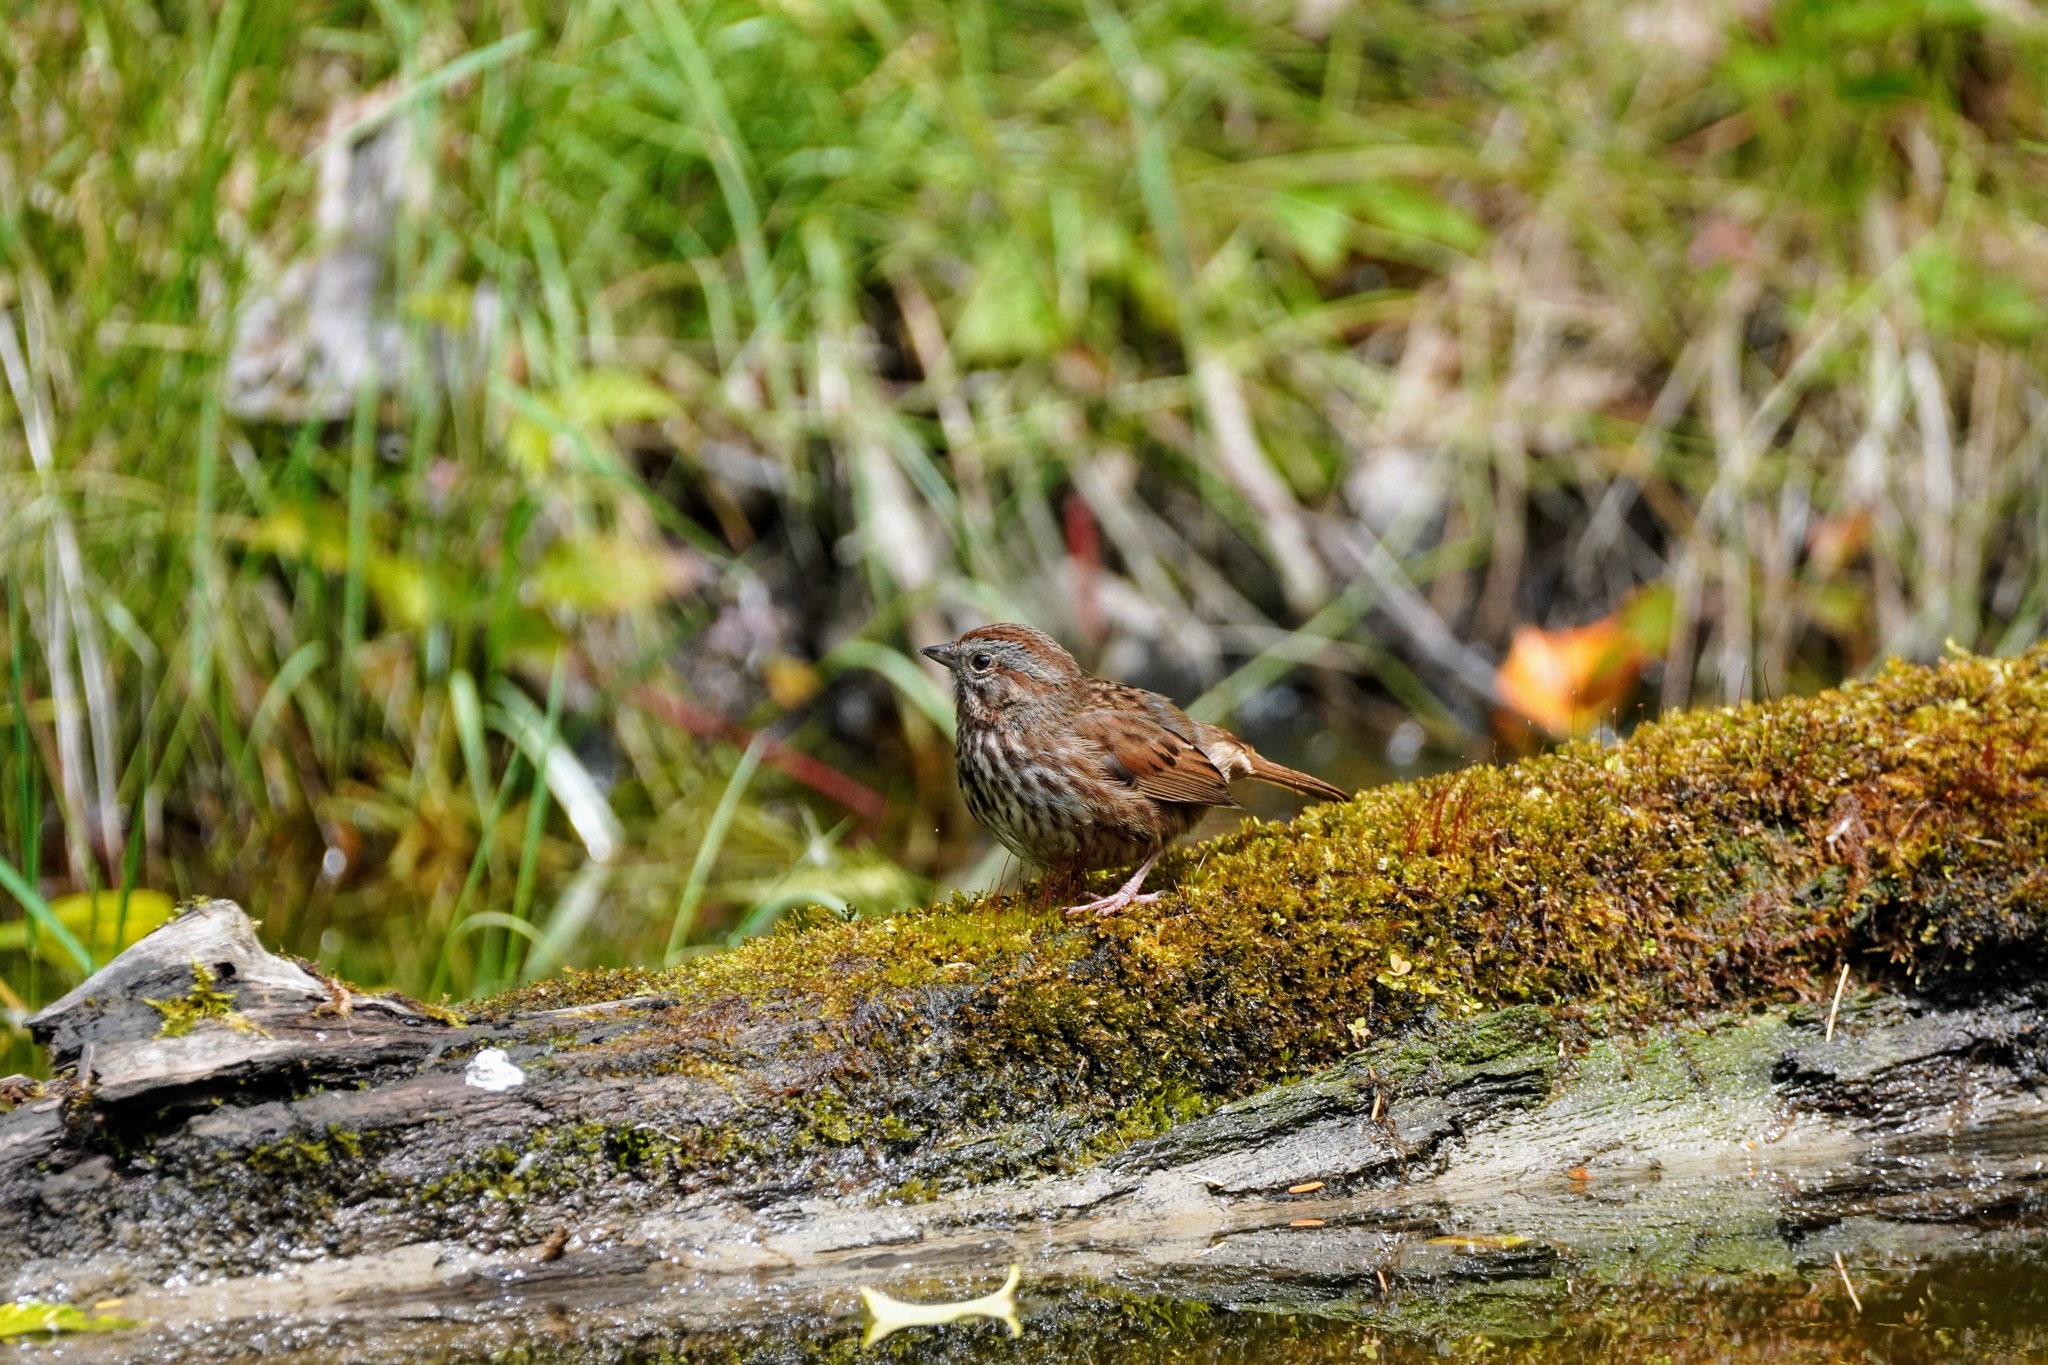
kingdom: Animalia
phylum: Chordata
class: Aves
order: Passeriformes
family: Passerellidae
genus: Melospiza
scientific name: Melospiza melodia
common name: Song sparrow
